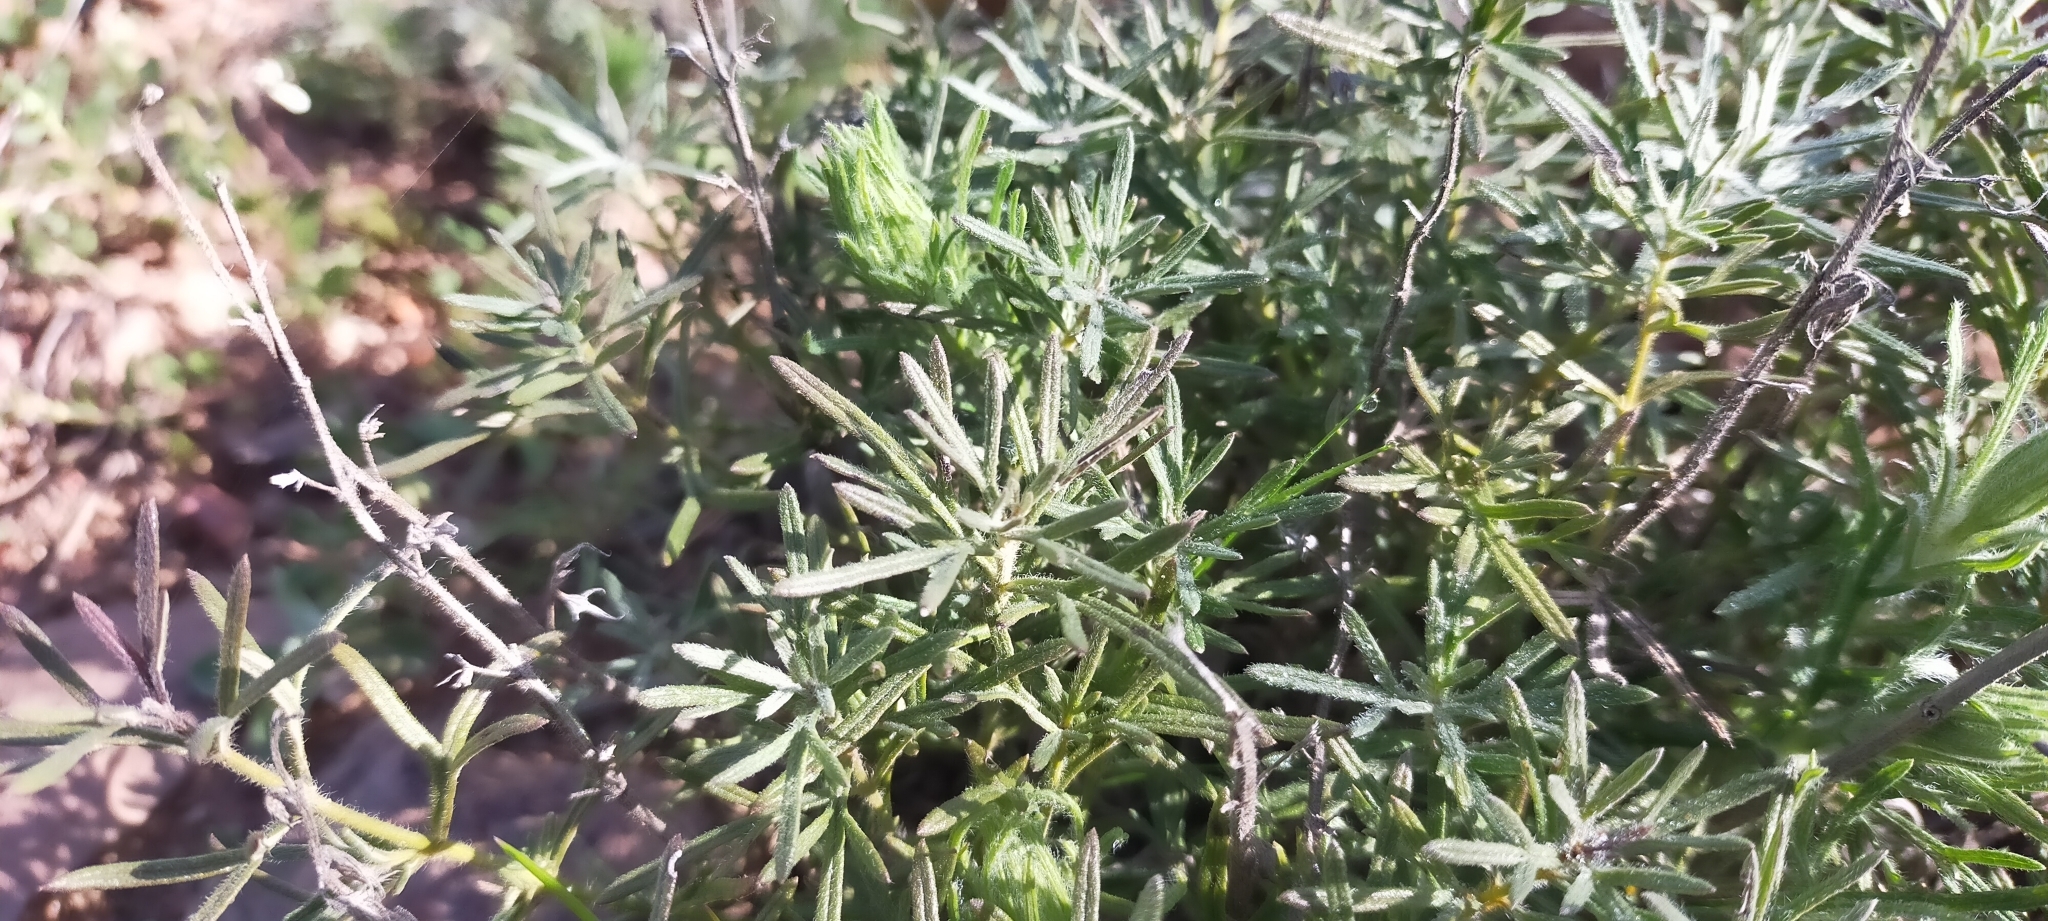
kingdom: Plantae
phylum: Tracheophyta
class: Magnoliopsida
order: Lamiales
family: Lamiaceae
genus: Teucrium
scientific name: Teucrium pseudochamaepitys
